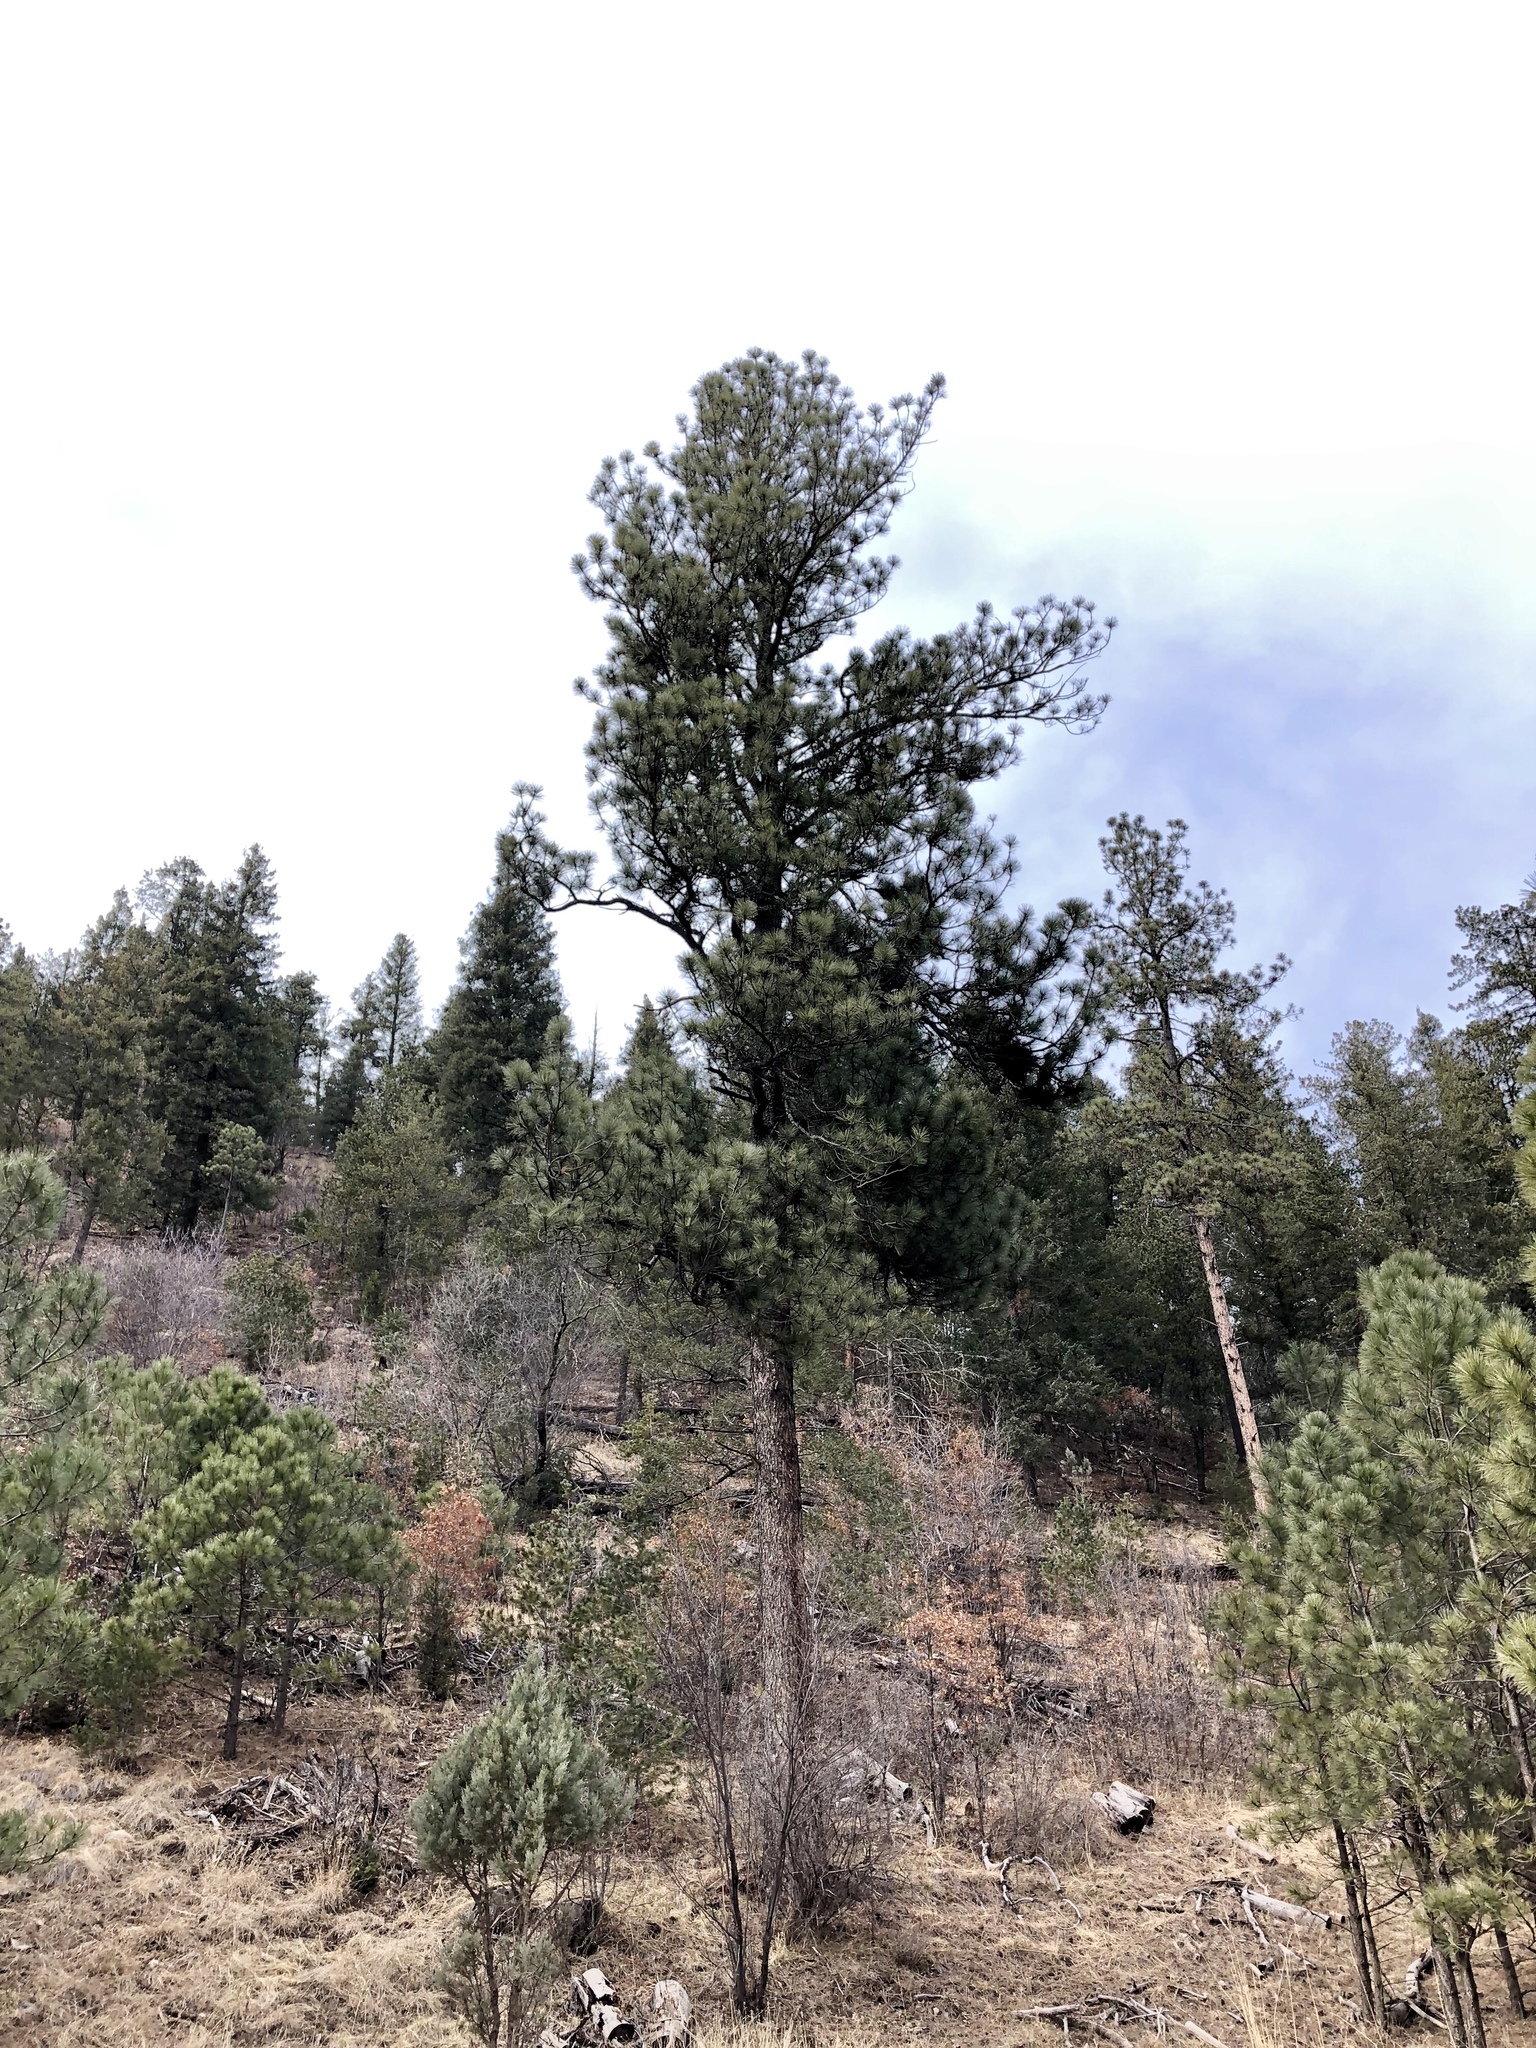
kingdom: Plantae
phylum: Tracheophyta
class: Pinopsida
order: Pinales
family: Pinaceae
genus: Pinus
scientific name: Pinus ponderosa
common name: Western yellow-pine
